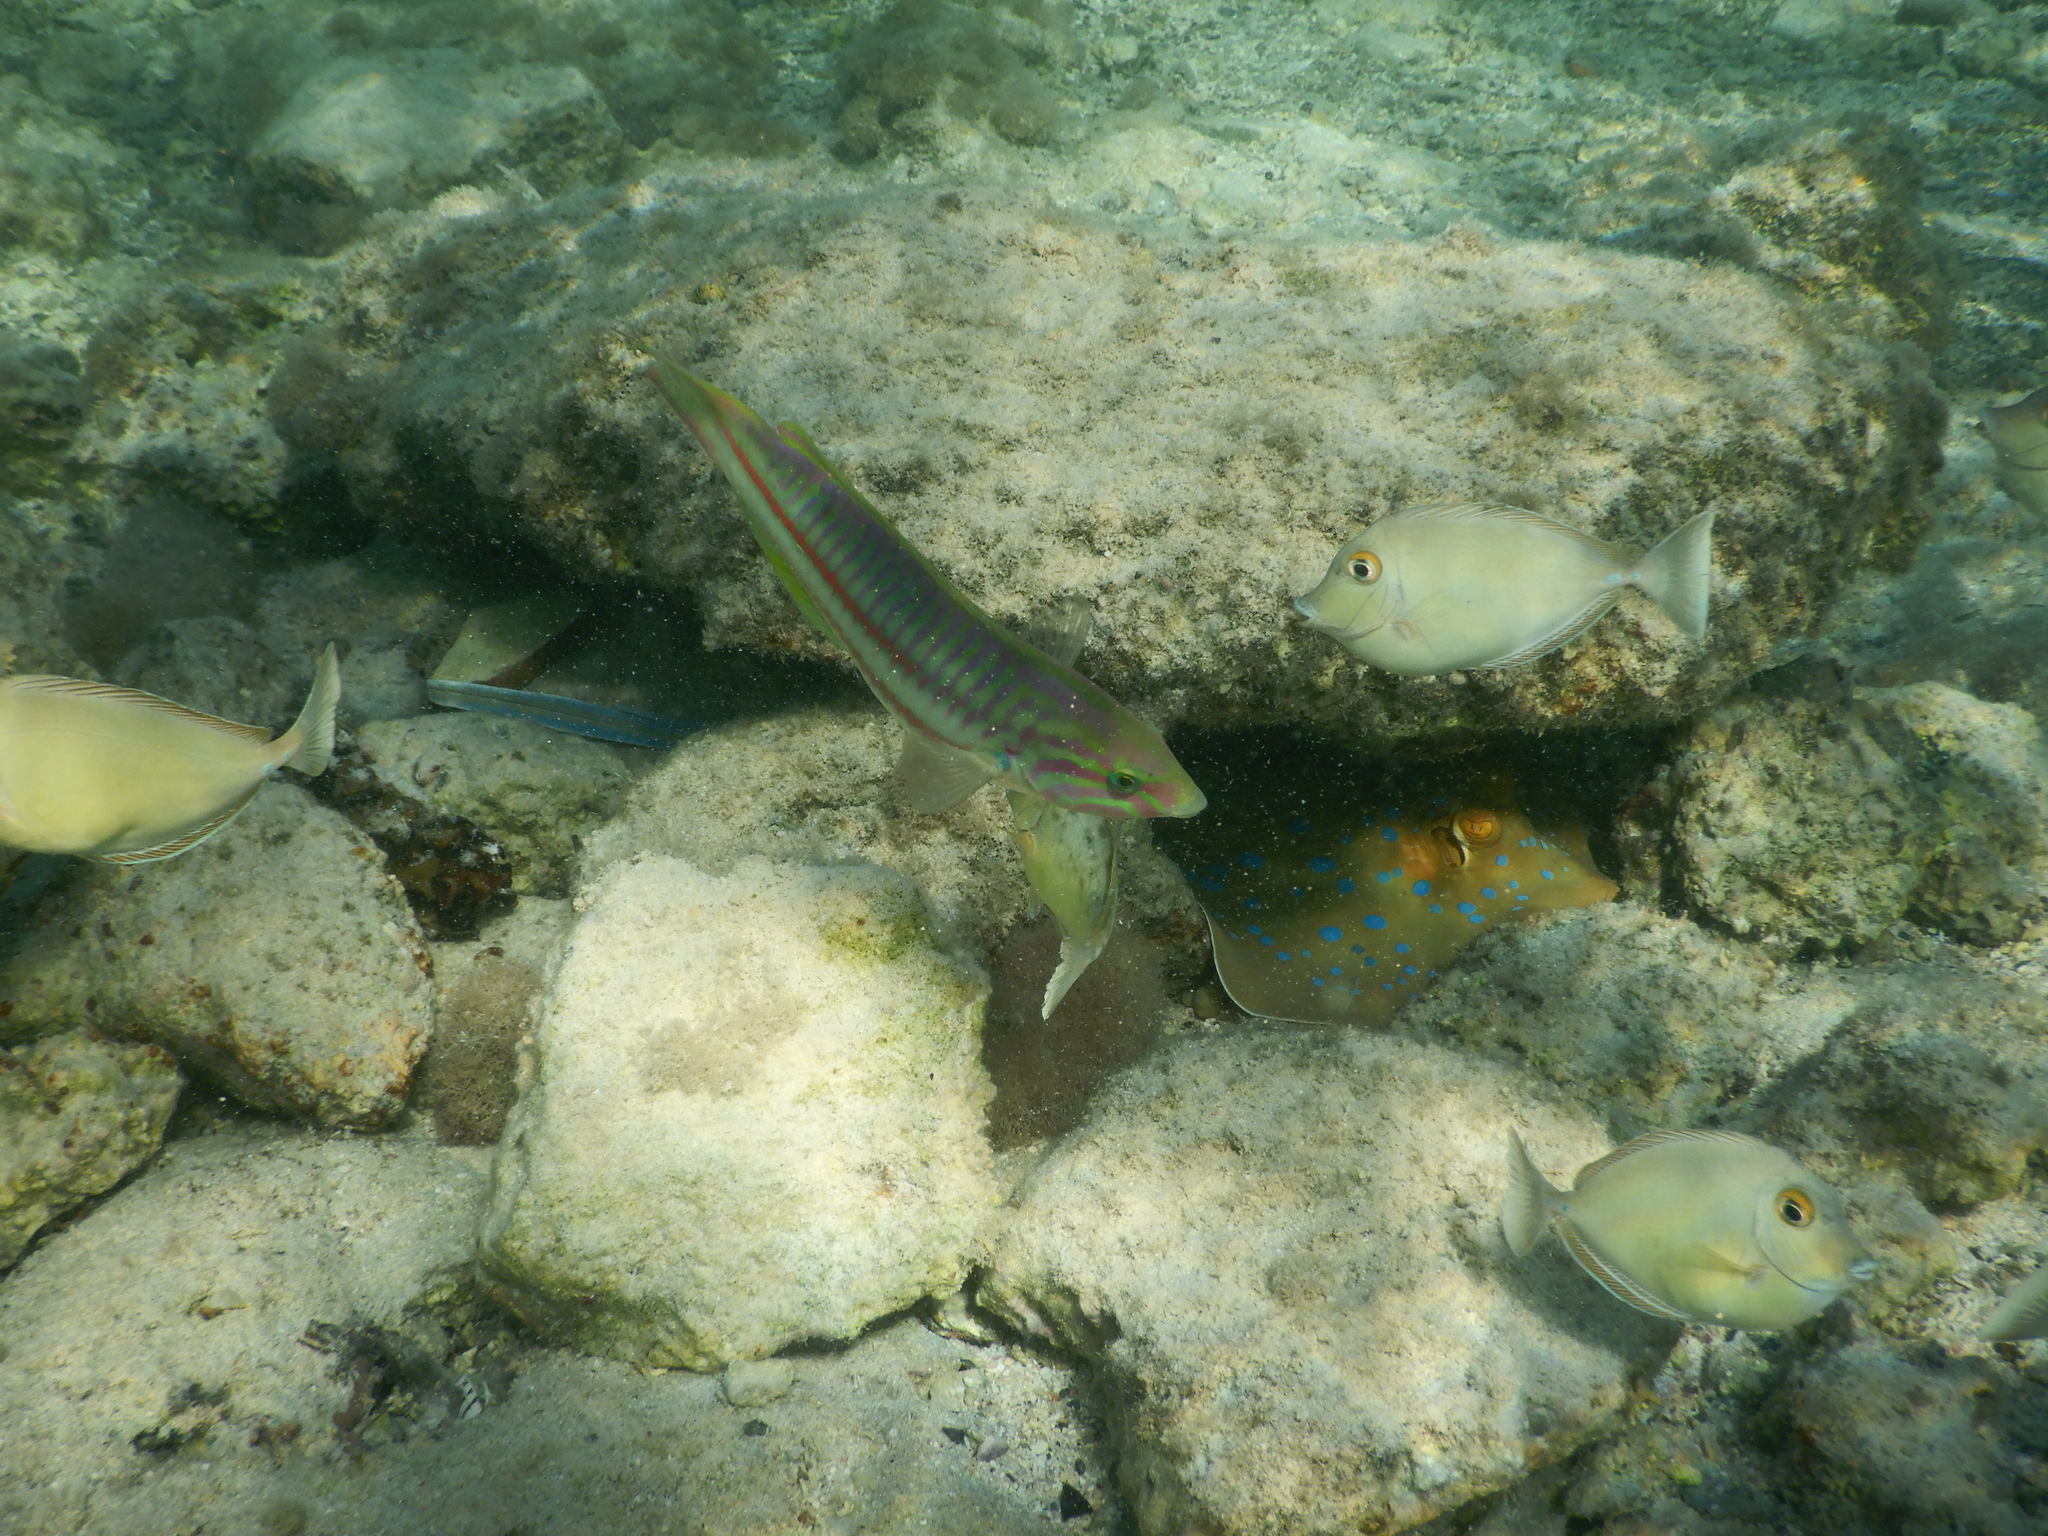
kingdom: Animalia
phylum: Chordata
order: Perciformes
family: Labridae
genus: Thalassoma
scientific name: Thalassoma rueppellii
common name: Klunzinger's wrasse
